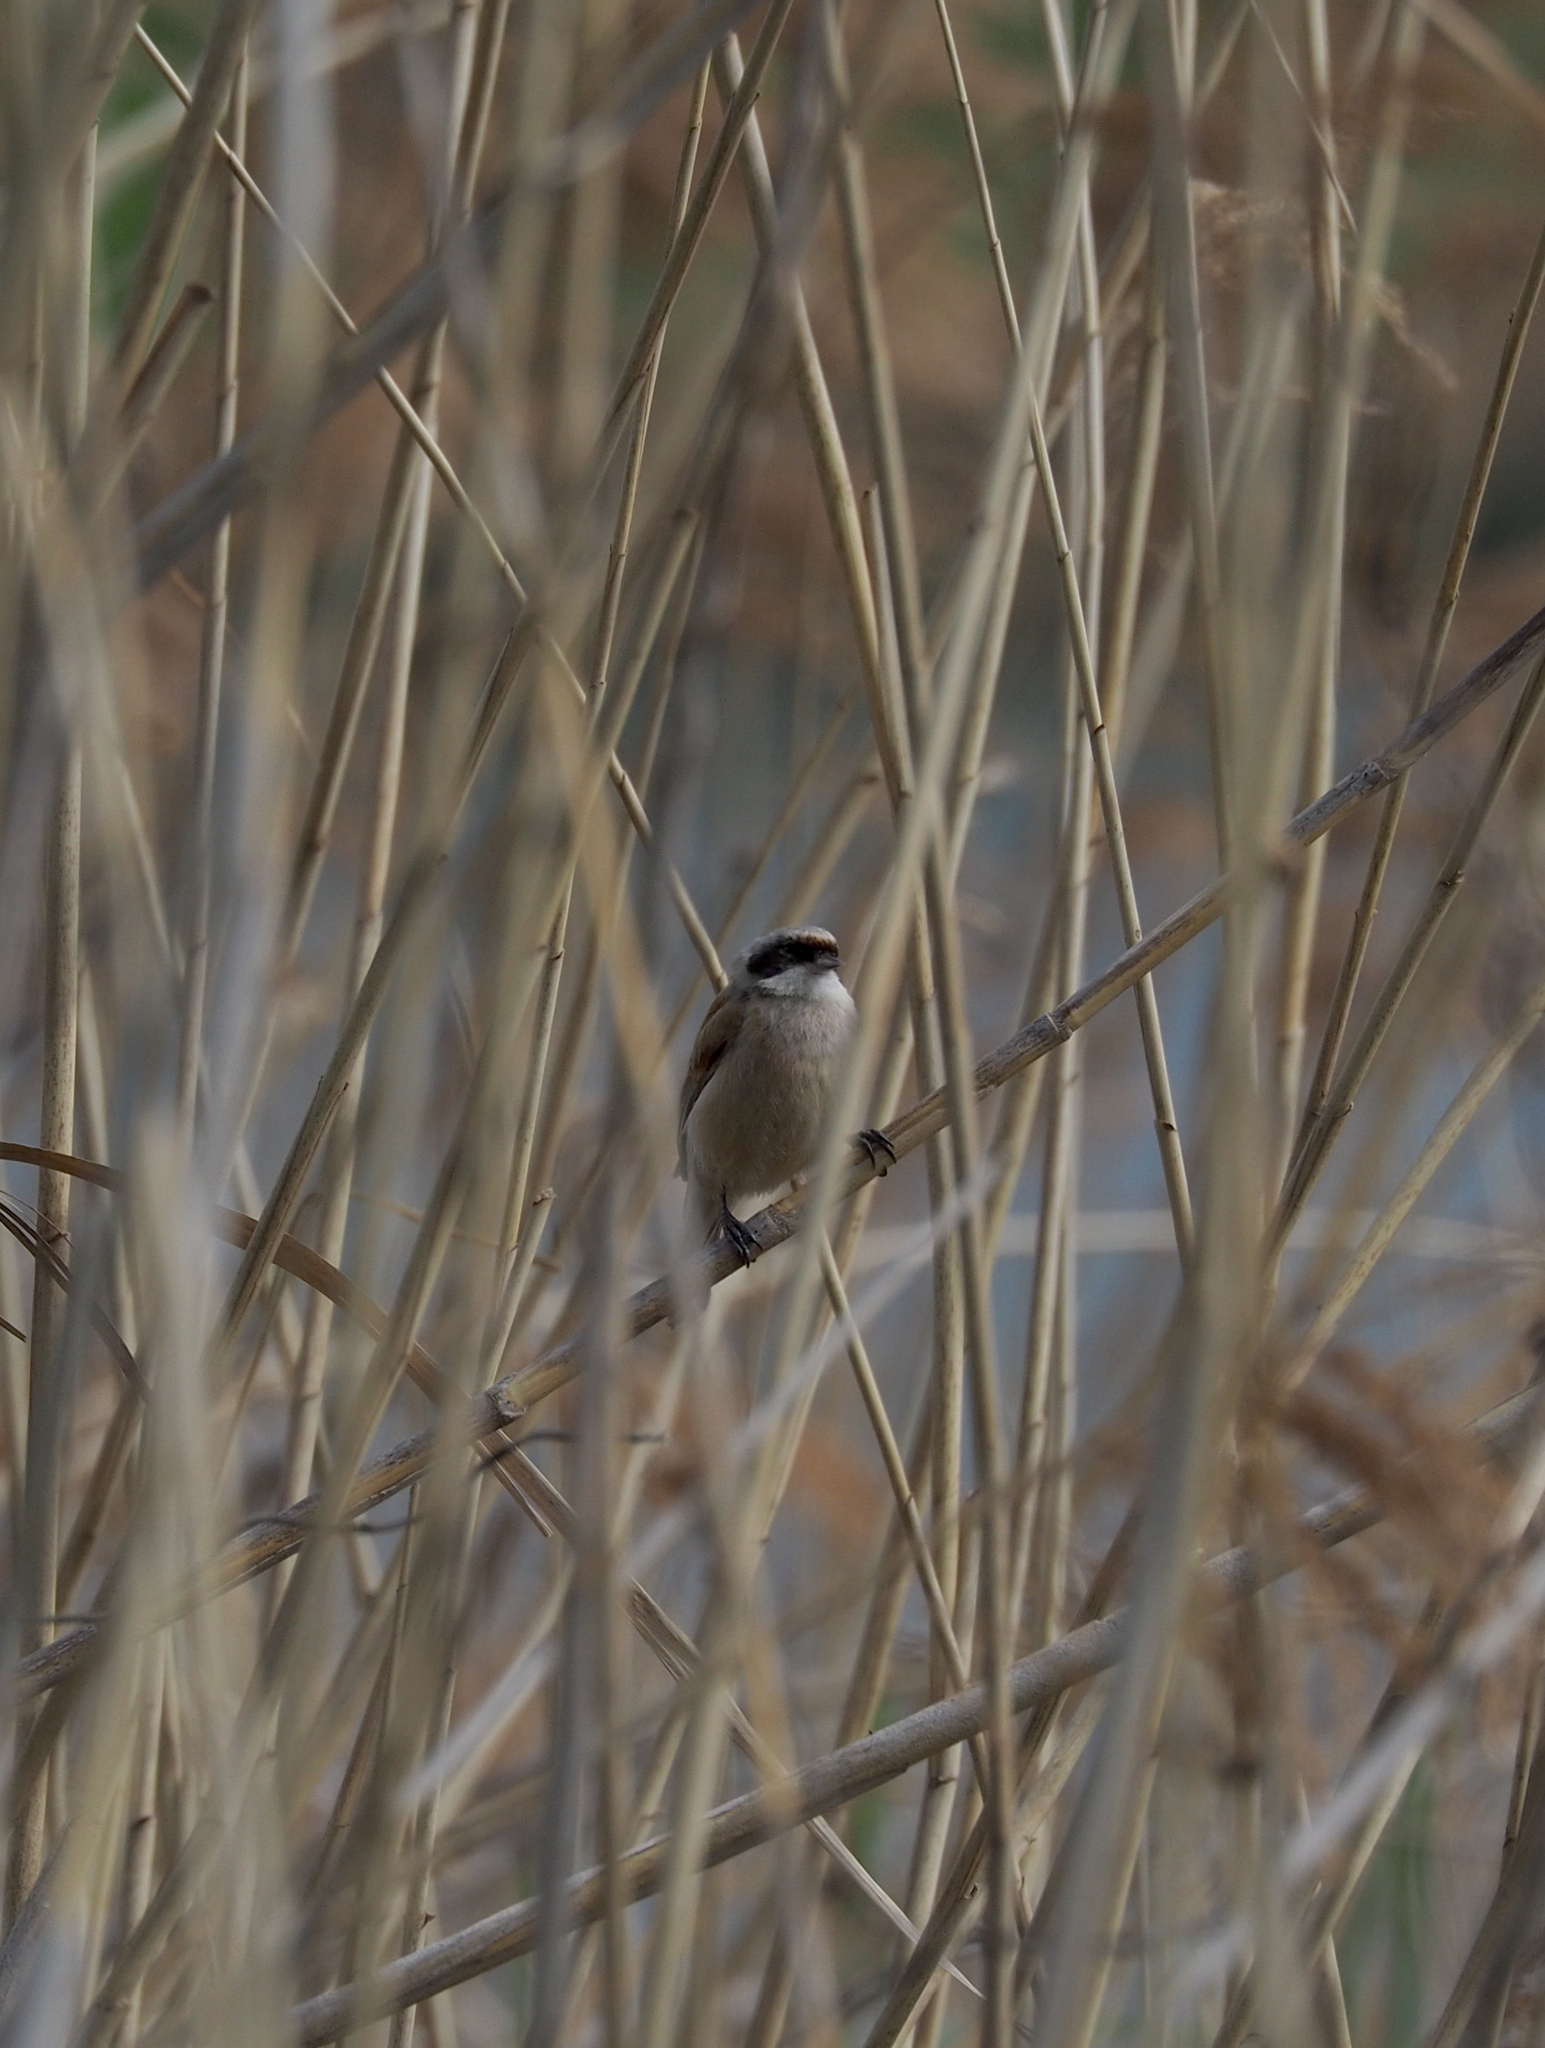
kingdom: Animalia
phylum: Chordata
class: Aves
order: Passeriformes
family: Remizidae
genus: Remiz
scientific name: Remiz pendulinus
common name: Eurasian penduline tit
